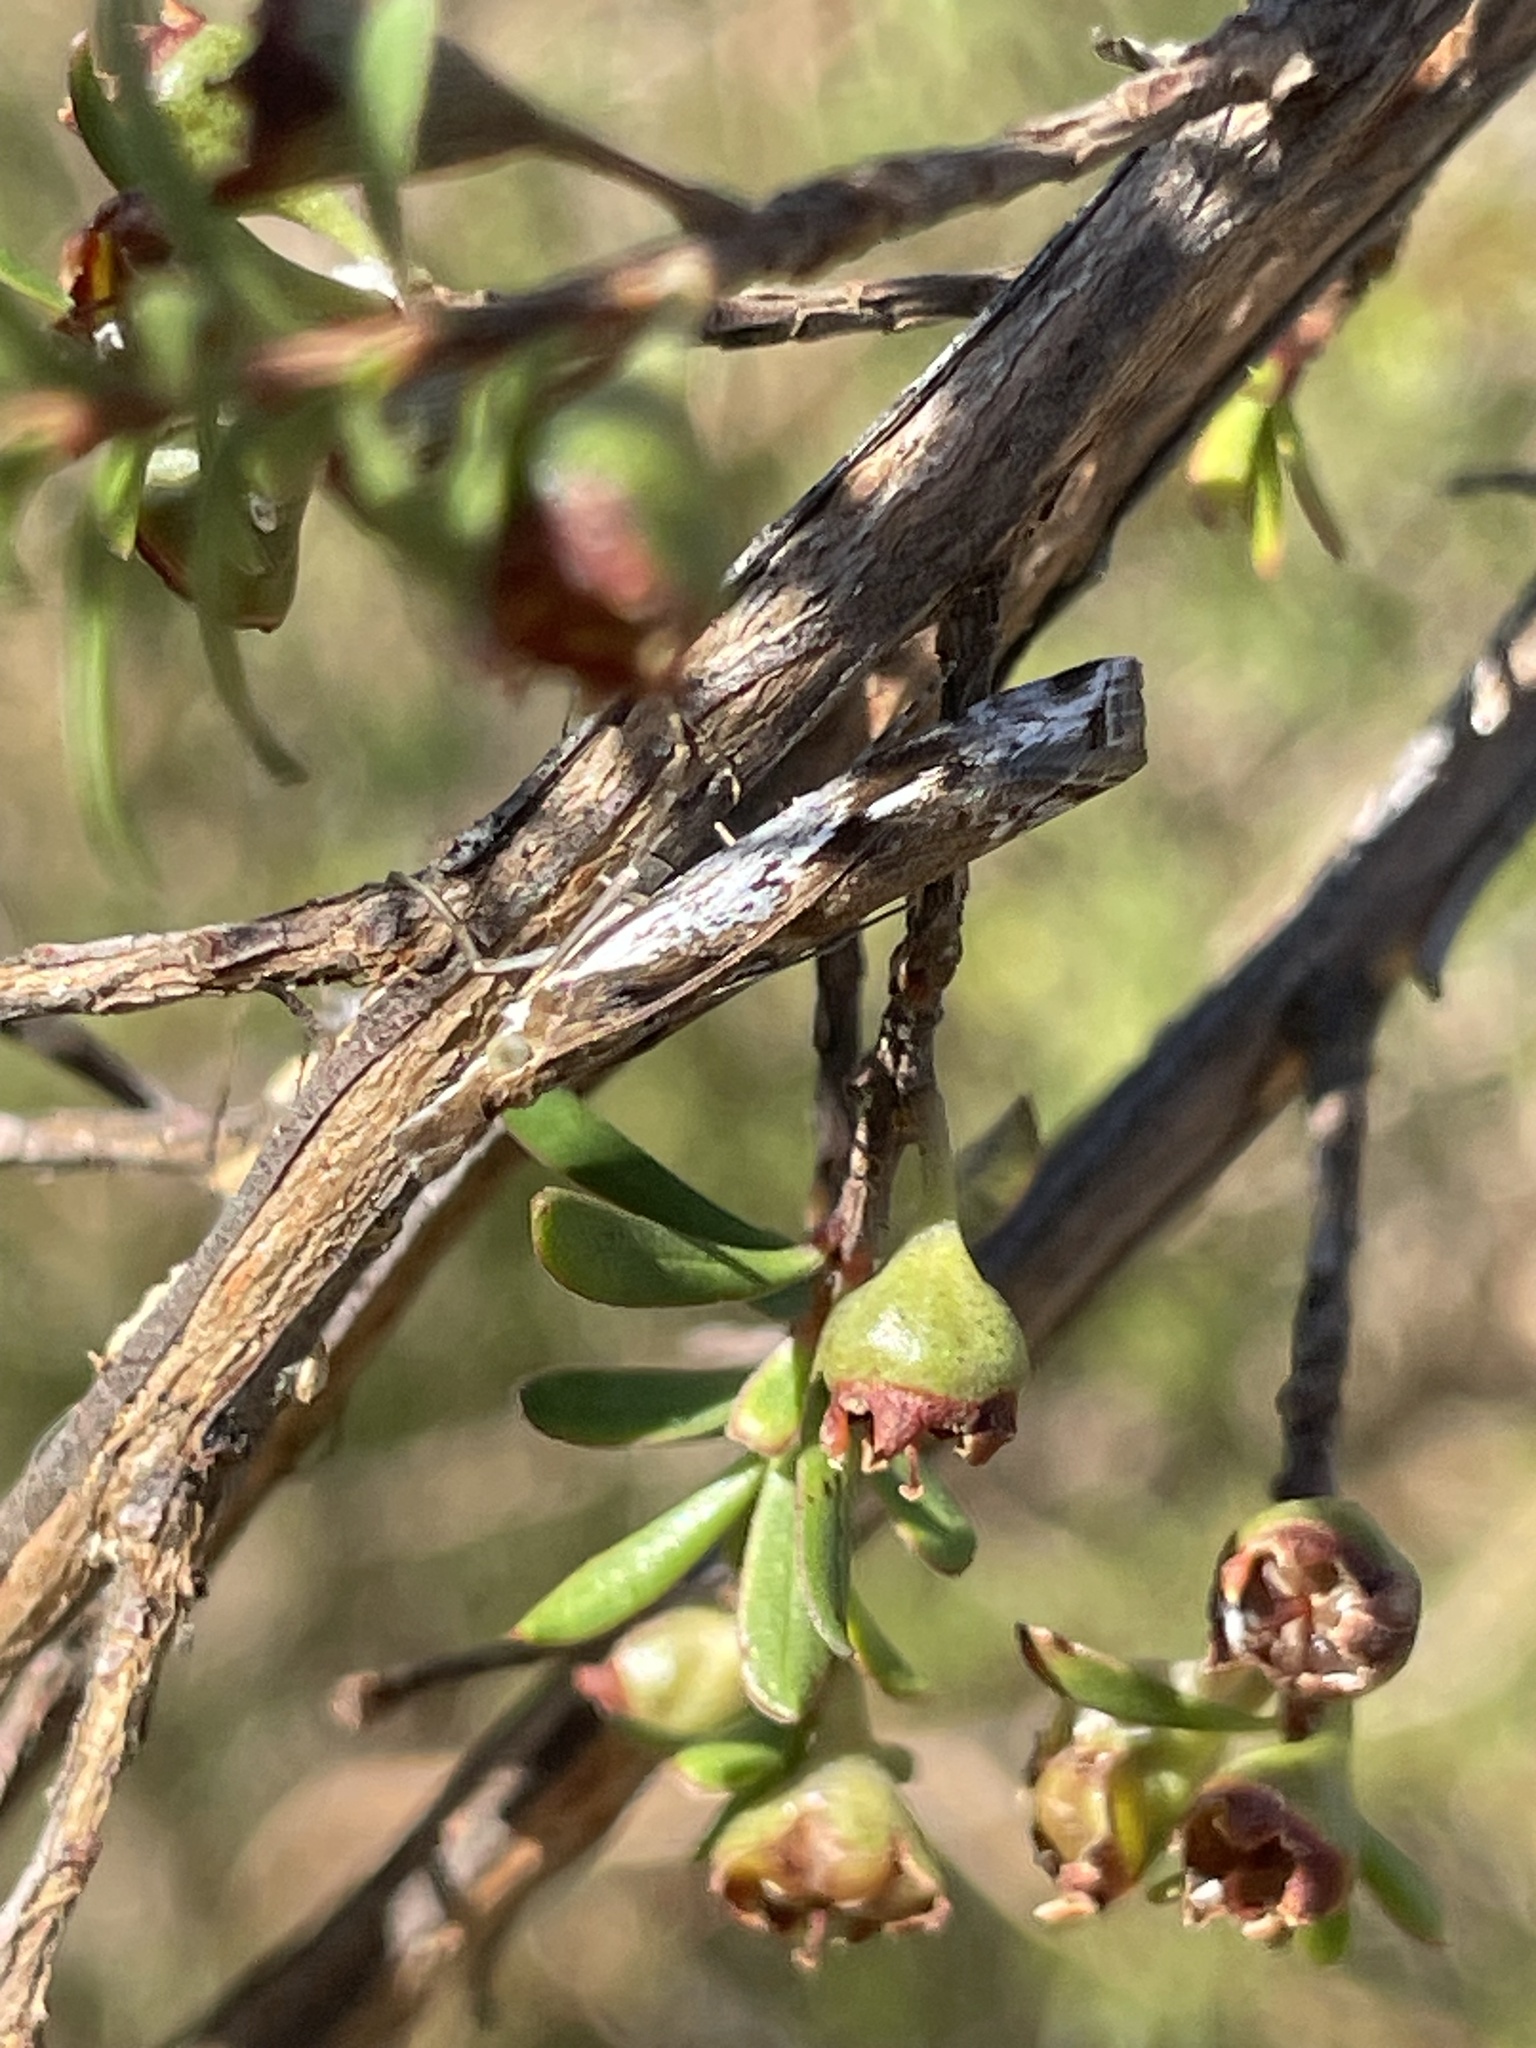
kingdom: Animalia
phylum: Arthropoda
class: Insecta
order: Lepidoptera
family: Crambidae
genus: Orocrambus
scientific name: Orocrambus vulgaris
